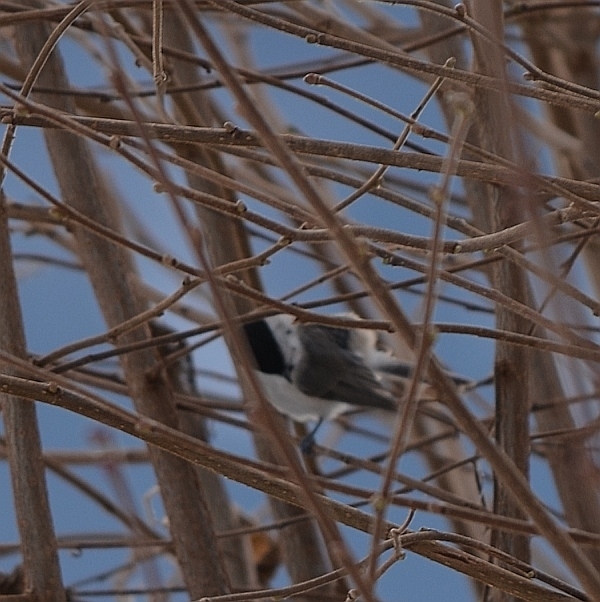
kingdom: Animalia
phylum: Chordata
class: Aves
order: Passeriformes
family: Paridae
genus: Poecile
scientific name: Poecile palustris
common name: Marsh tit
